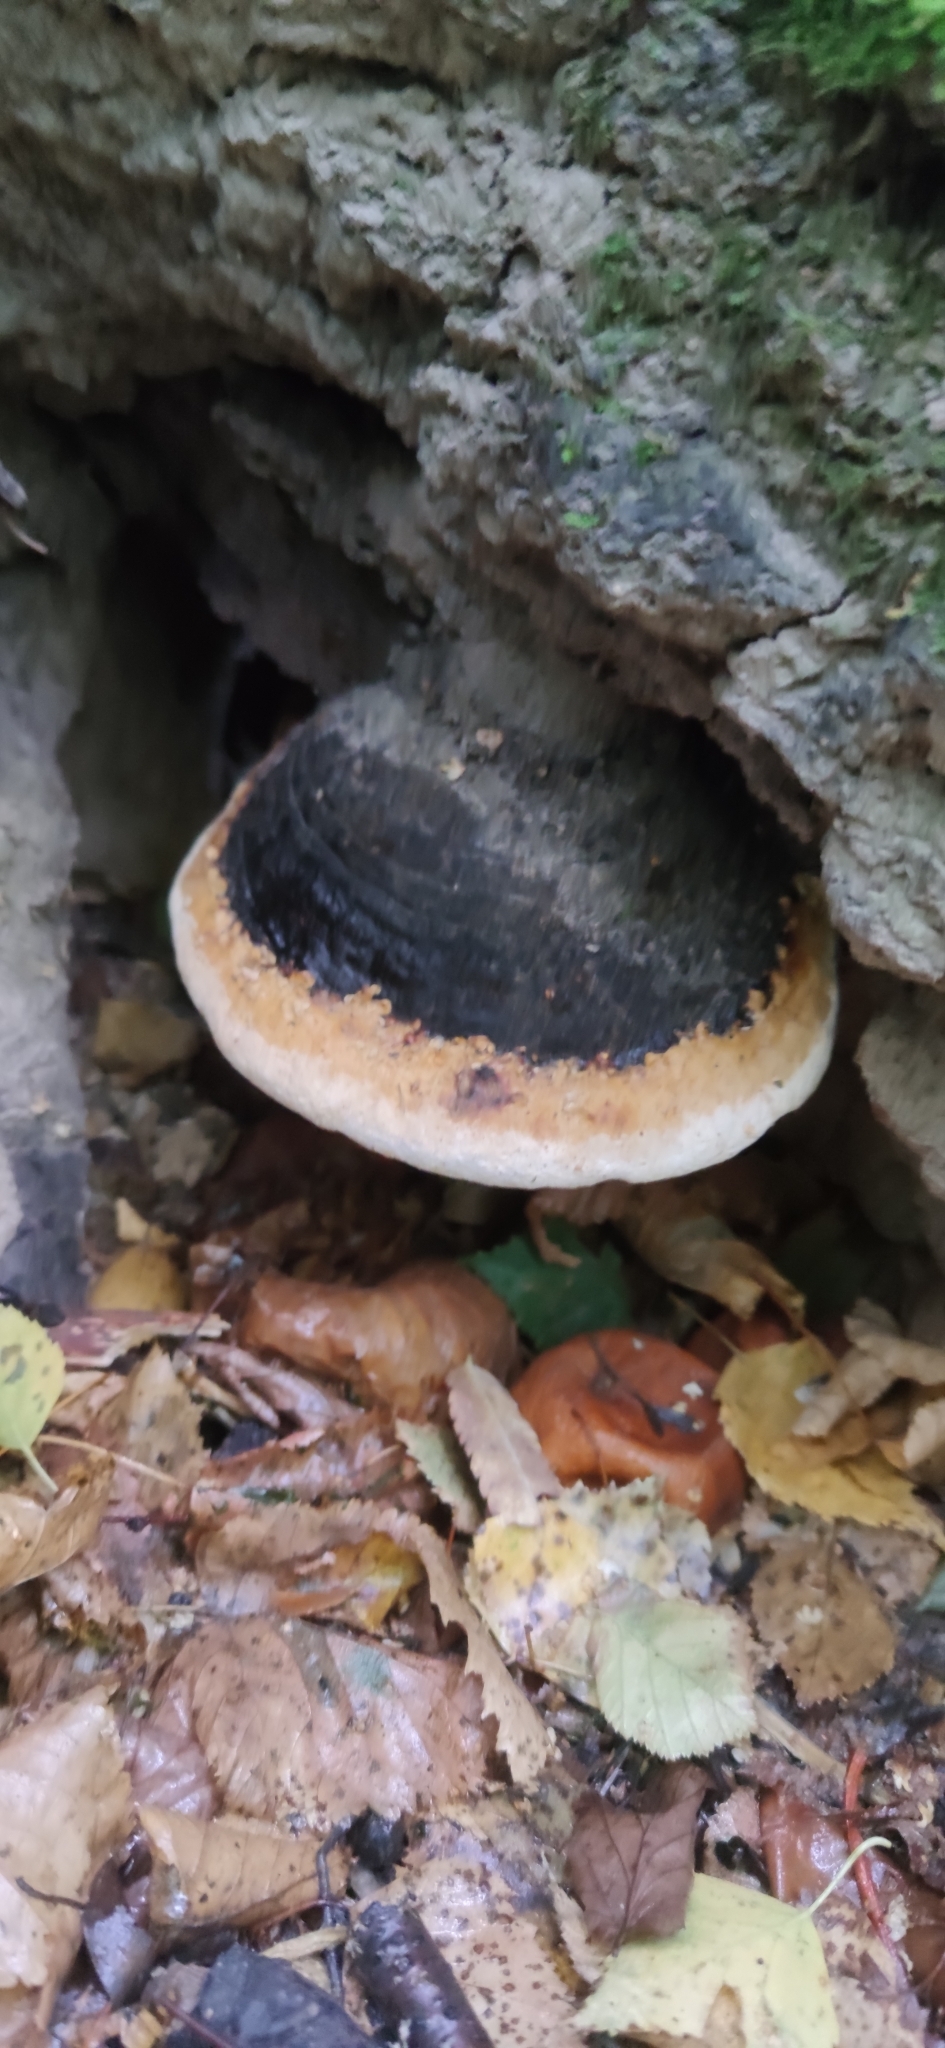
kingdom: Fungi
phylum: Basidiomycota
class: Agaricomycetes
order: Polyporales
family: Fomitopsidaceae
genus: Fomitopsis
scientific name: Fomitopsis pinicola
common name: Red-belted bracket
